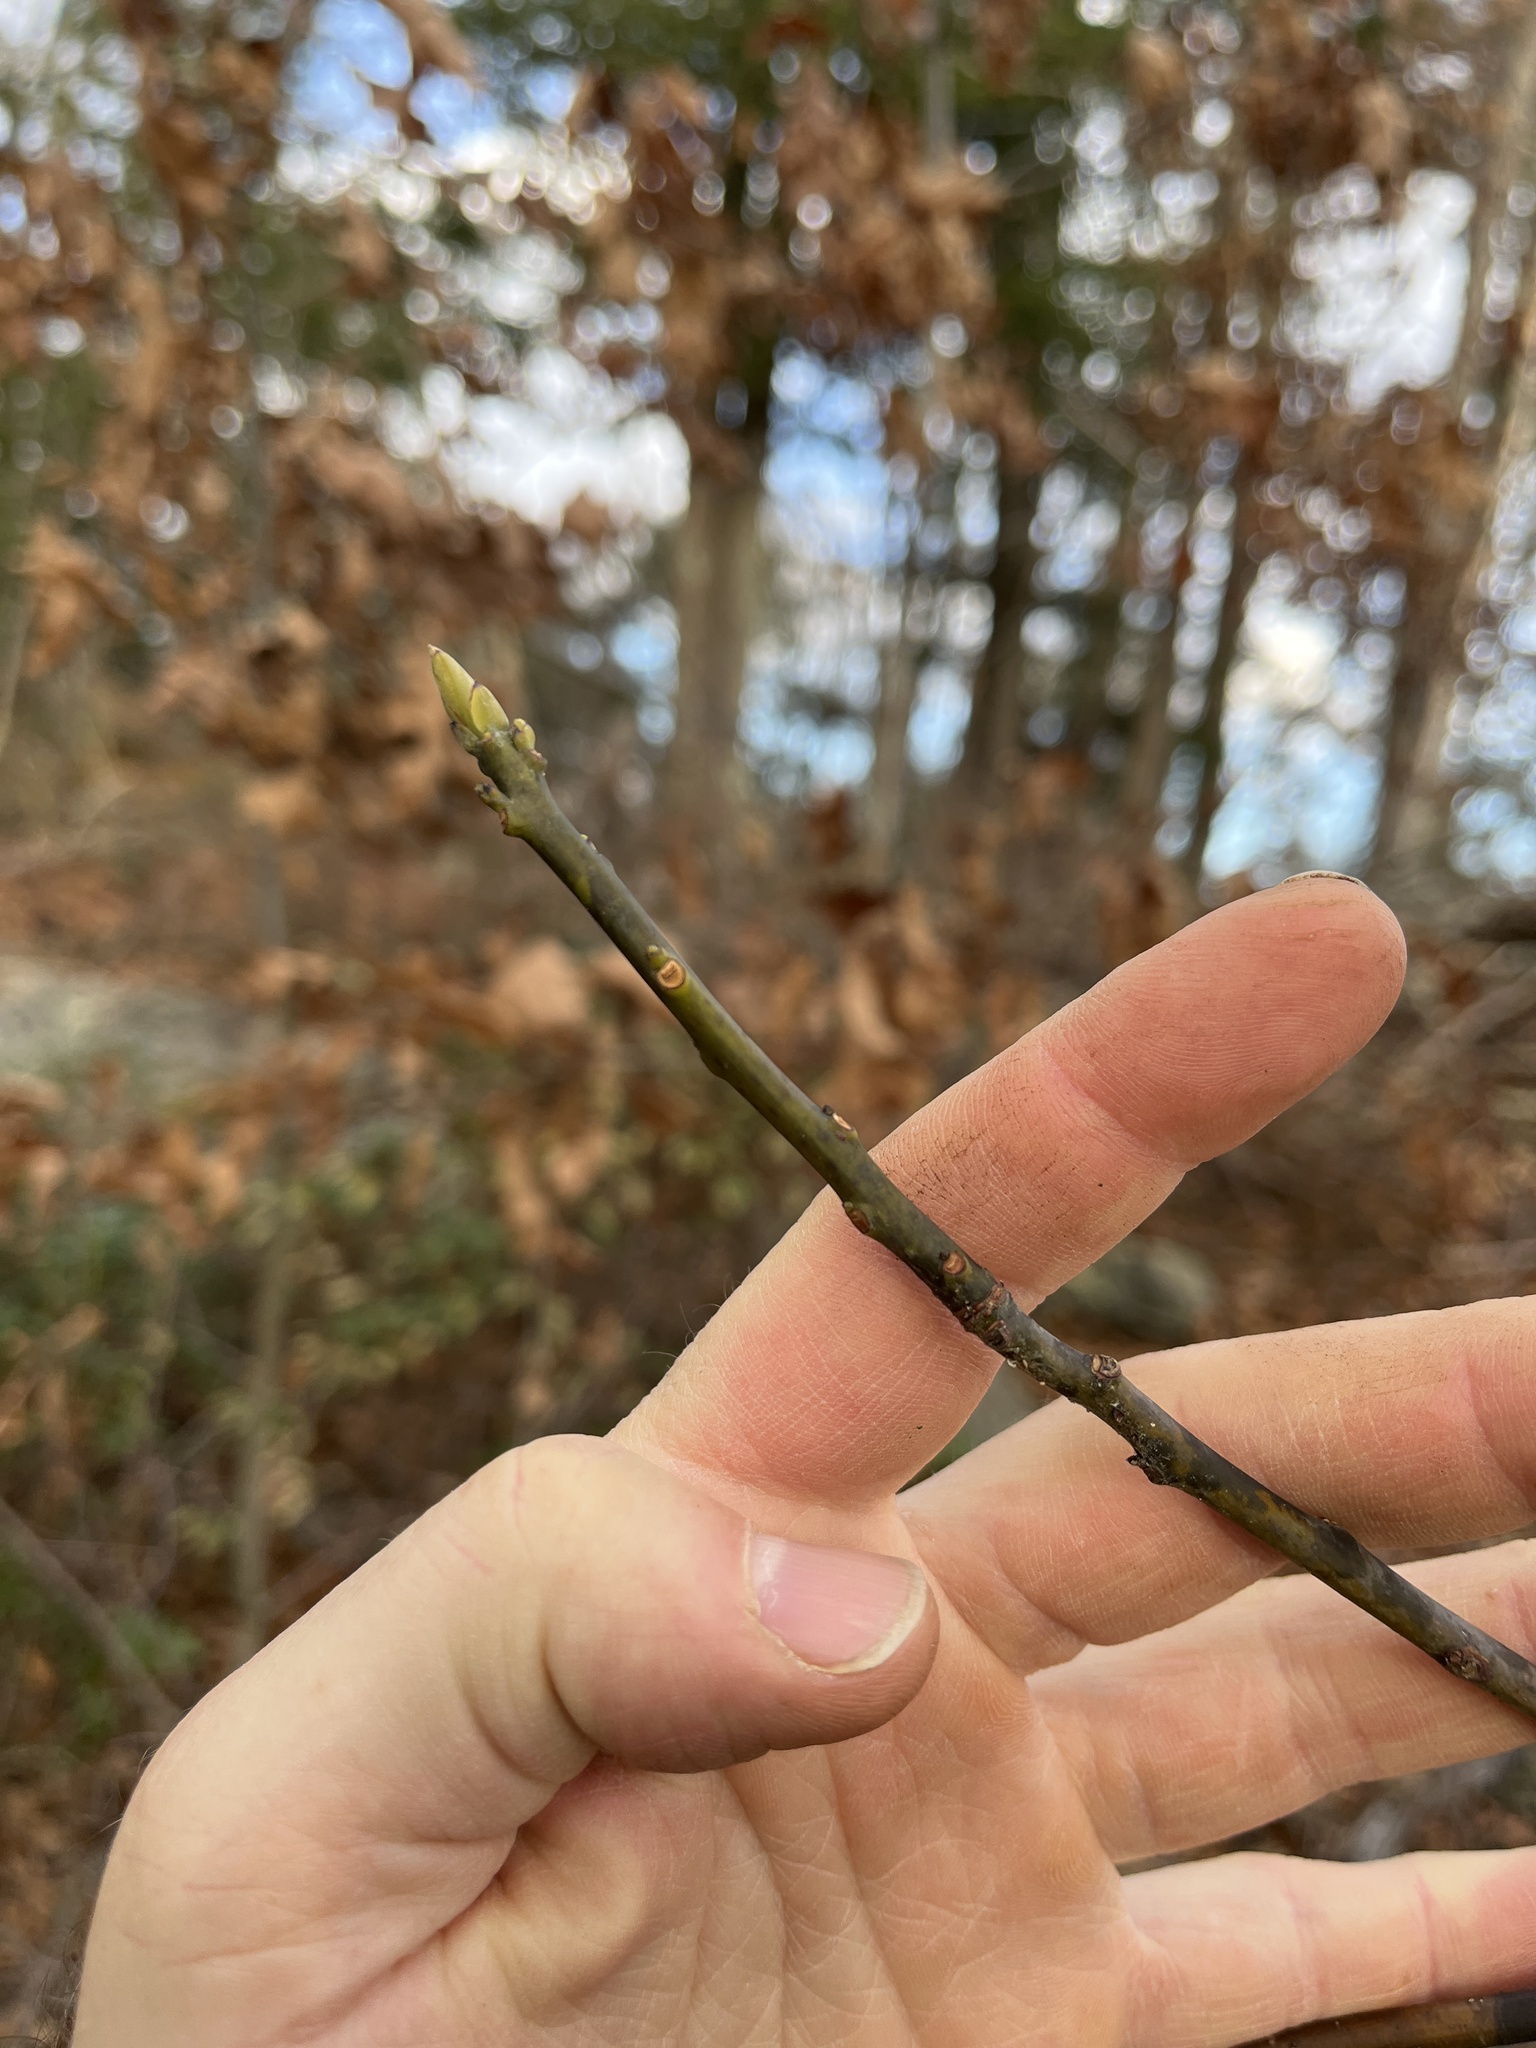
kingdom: Plantae
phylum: Tracheophyta
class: Magnoliopsida
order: Laurales
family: Lauraceae
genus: Sassafras
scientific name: Sassafras albidum
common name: Sassafras
